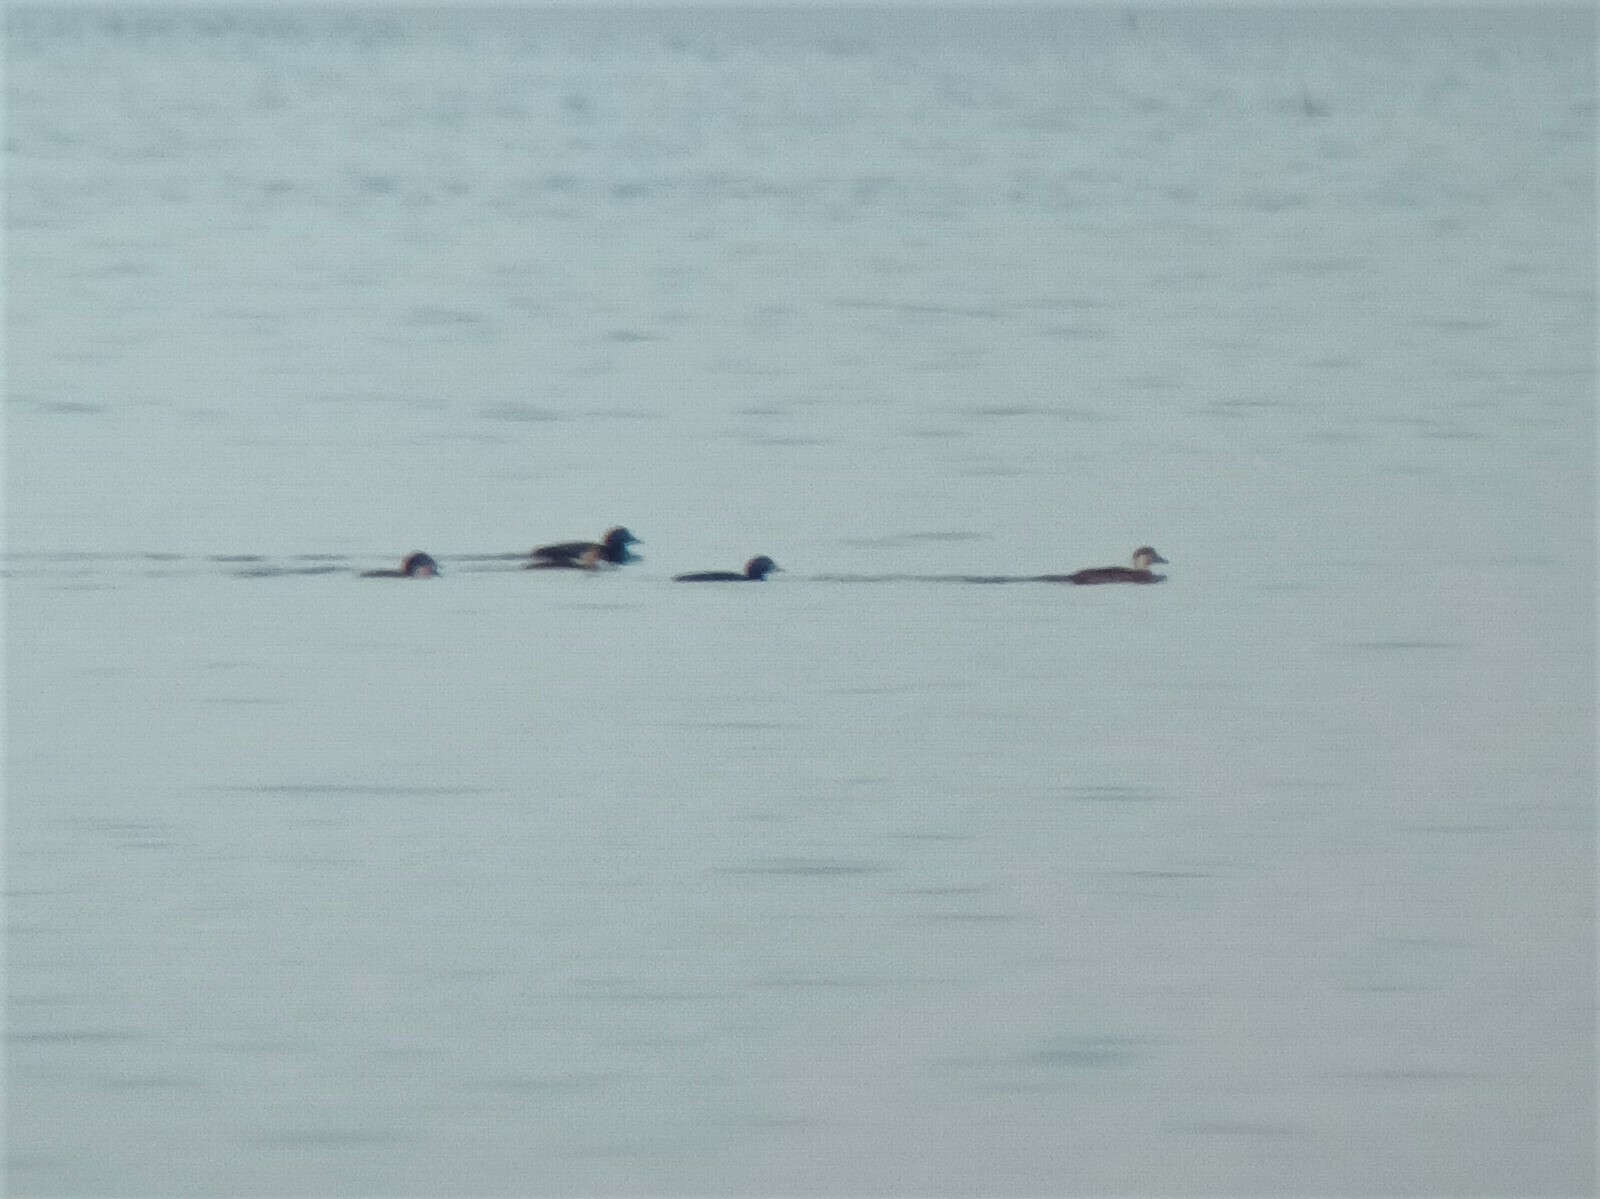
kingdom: Animalia
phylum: Chordata
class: Aves
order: Anseriformes
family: Anatidae
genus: Melanitta
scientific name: Melanitta nigra
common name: Common scoter
